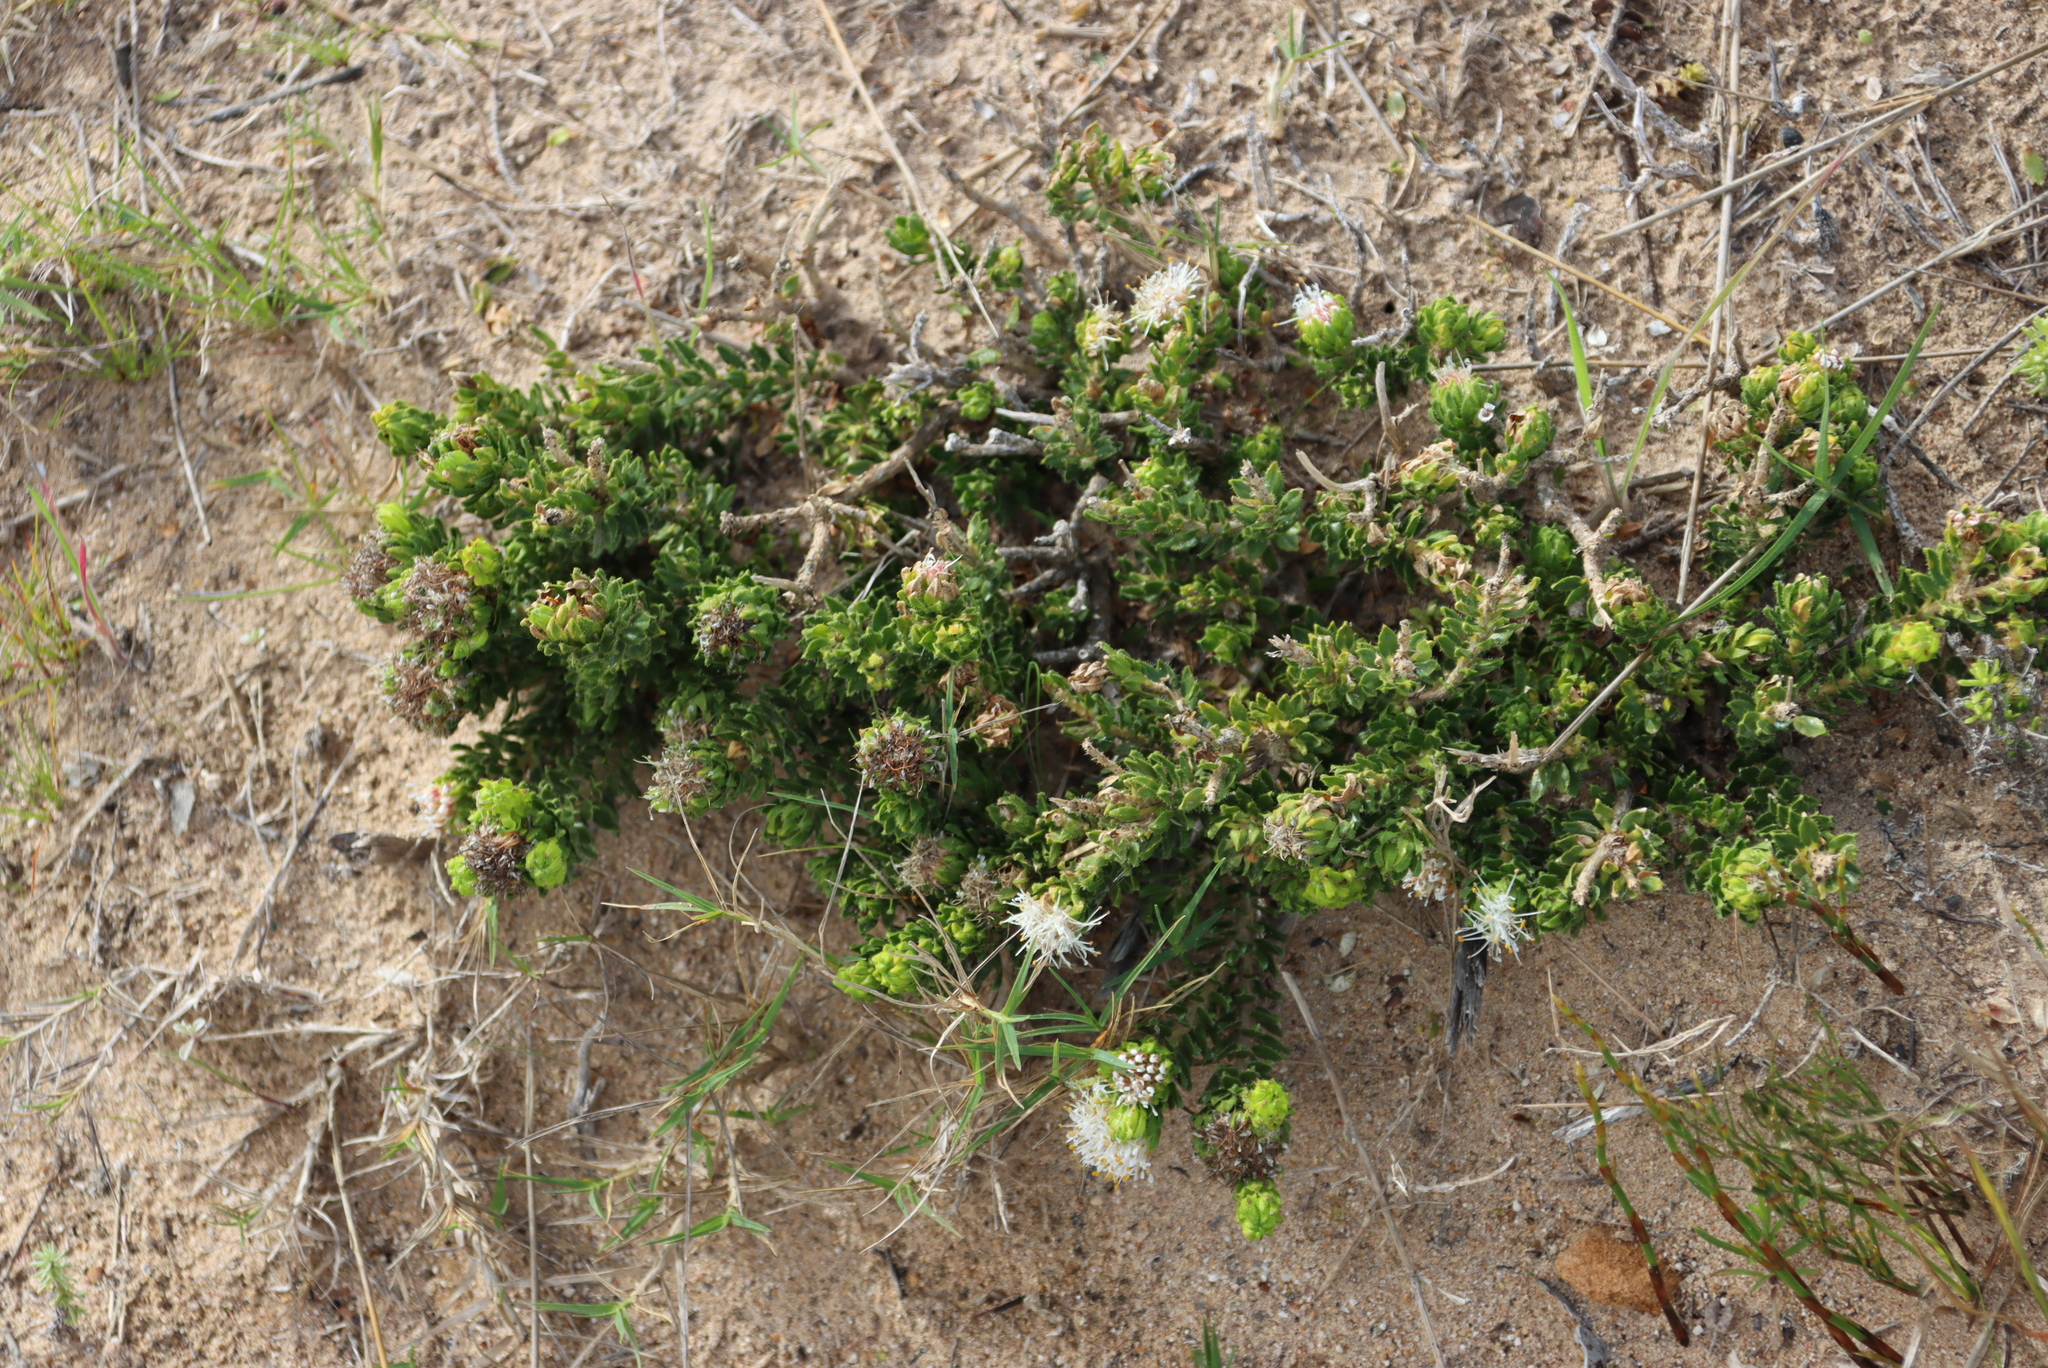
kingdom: Plantae
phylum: Tracheophyta
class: Magnoliopsida
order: Sapindales
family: Rutaceae
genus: Agathosma
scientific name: Agathosma eriantha
